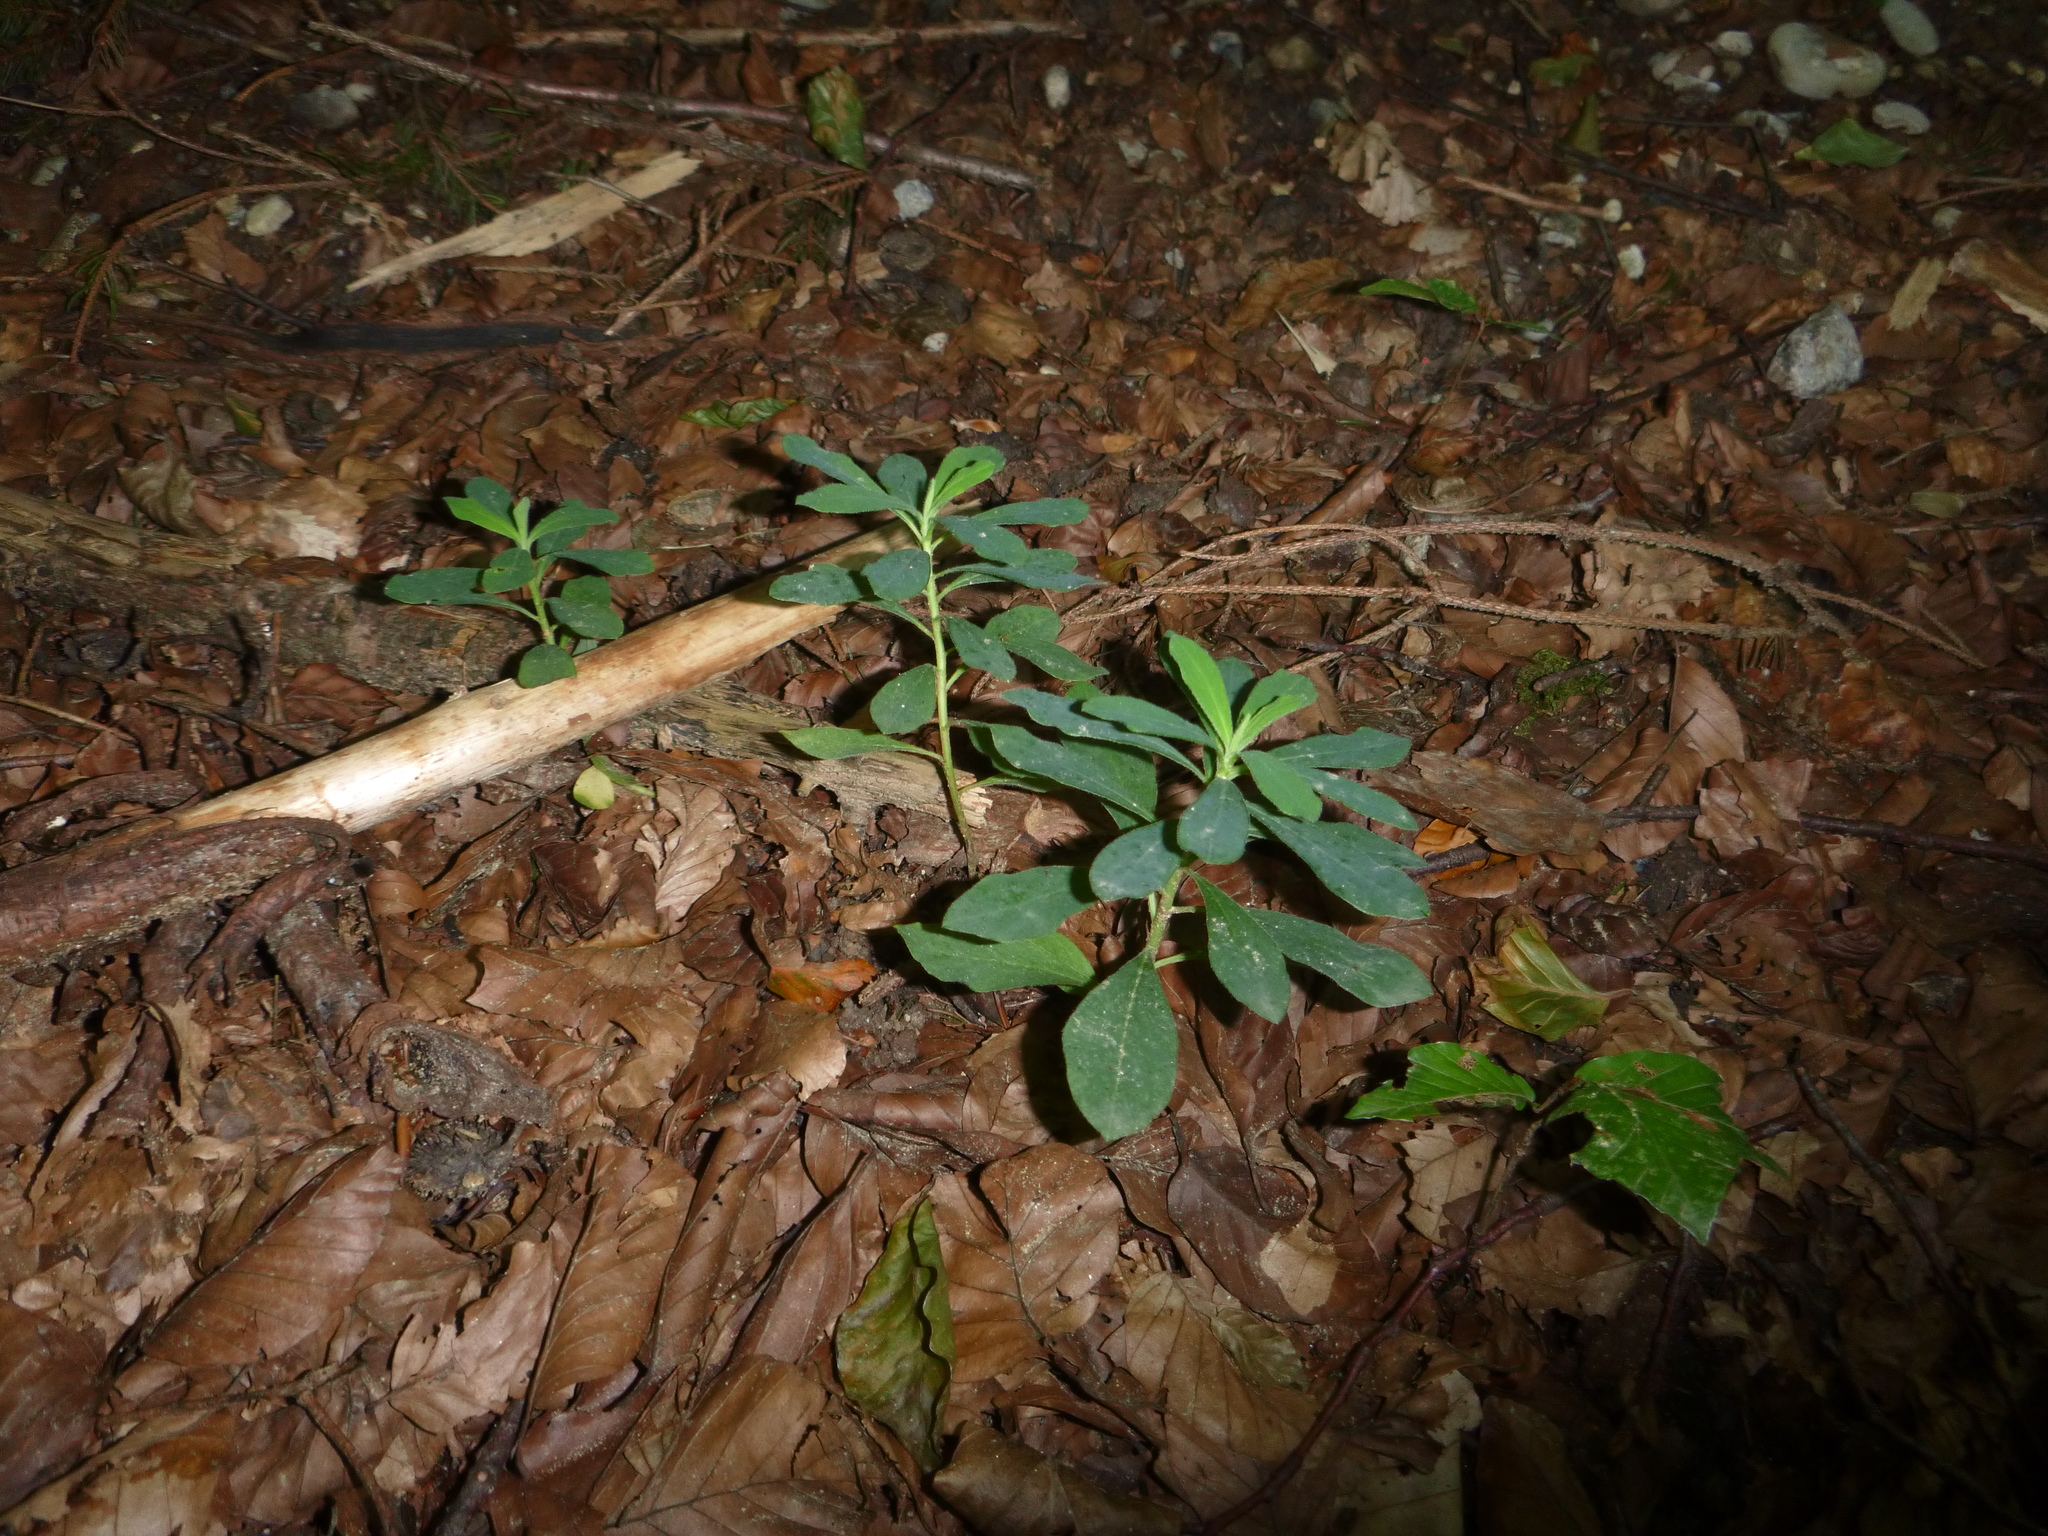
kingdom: Plantae
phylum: Tracheophyta
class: Magnoliopsida
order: Malpighiales
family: Euphorbiaceae
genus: Euphorbia
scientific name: Euphorbia amygdaloides
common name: Wood spurge
